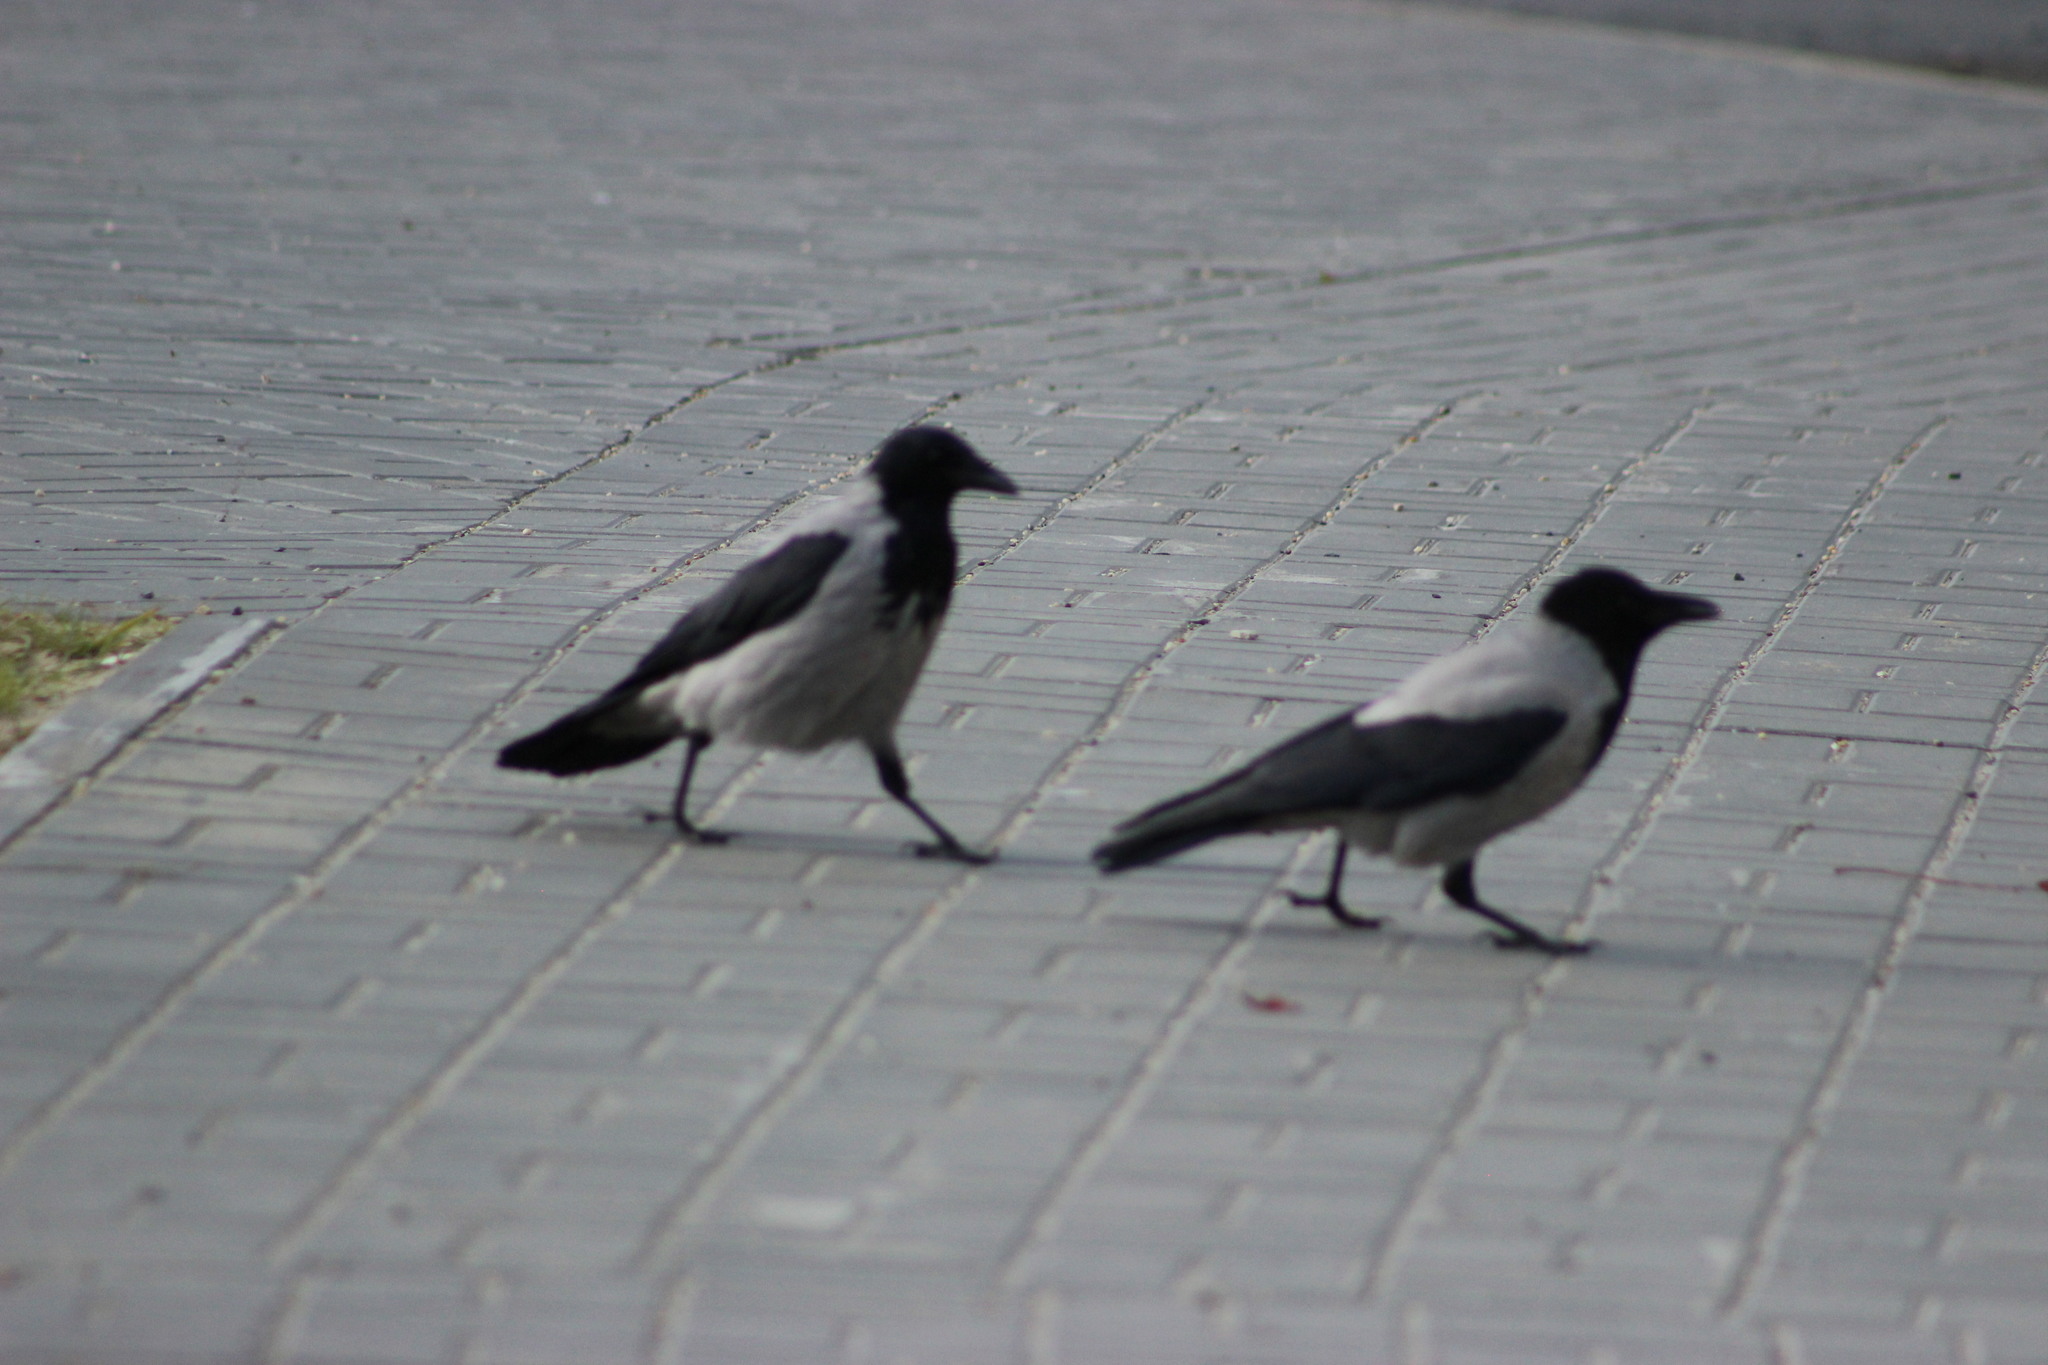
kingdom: Animalia
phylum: Chordata
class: Aves
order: Passeriformes
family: Corvidae
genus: Corvus
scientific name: Corvus cornix
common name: Hooded crow
